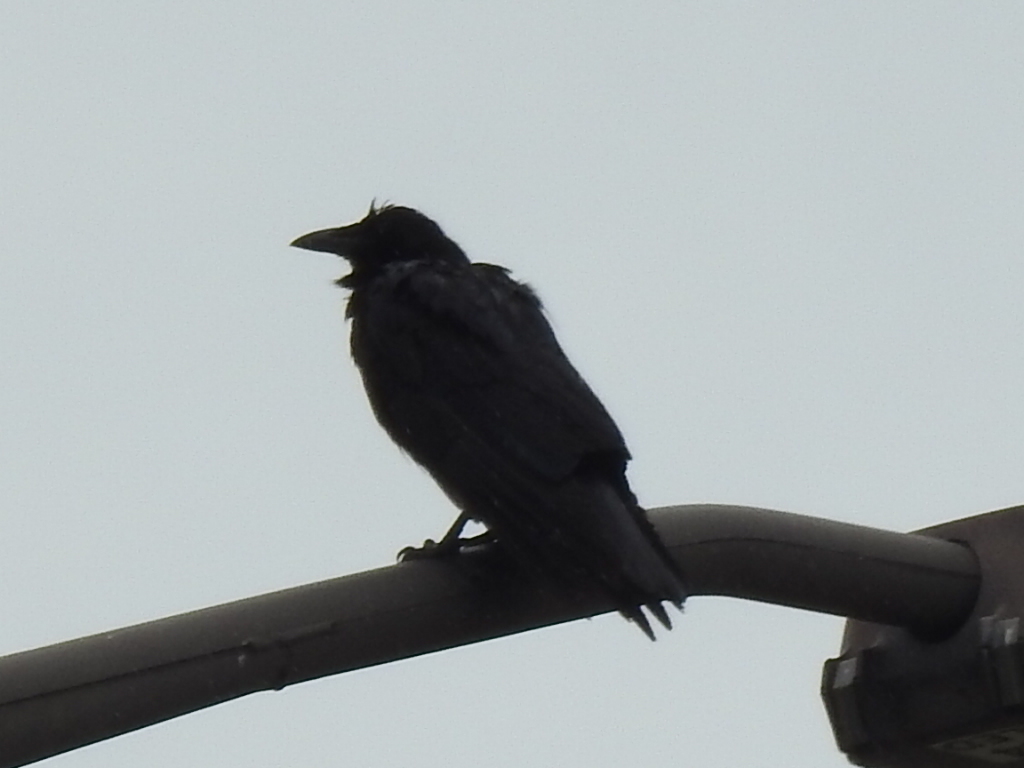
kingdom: Animalia
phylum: Chordata
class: Aves
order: Passeriformes
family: Corvidae
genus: Corvus
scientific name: Corvus brachyrhynchos
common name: American crow
